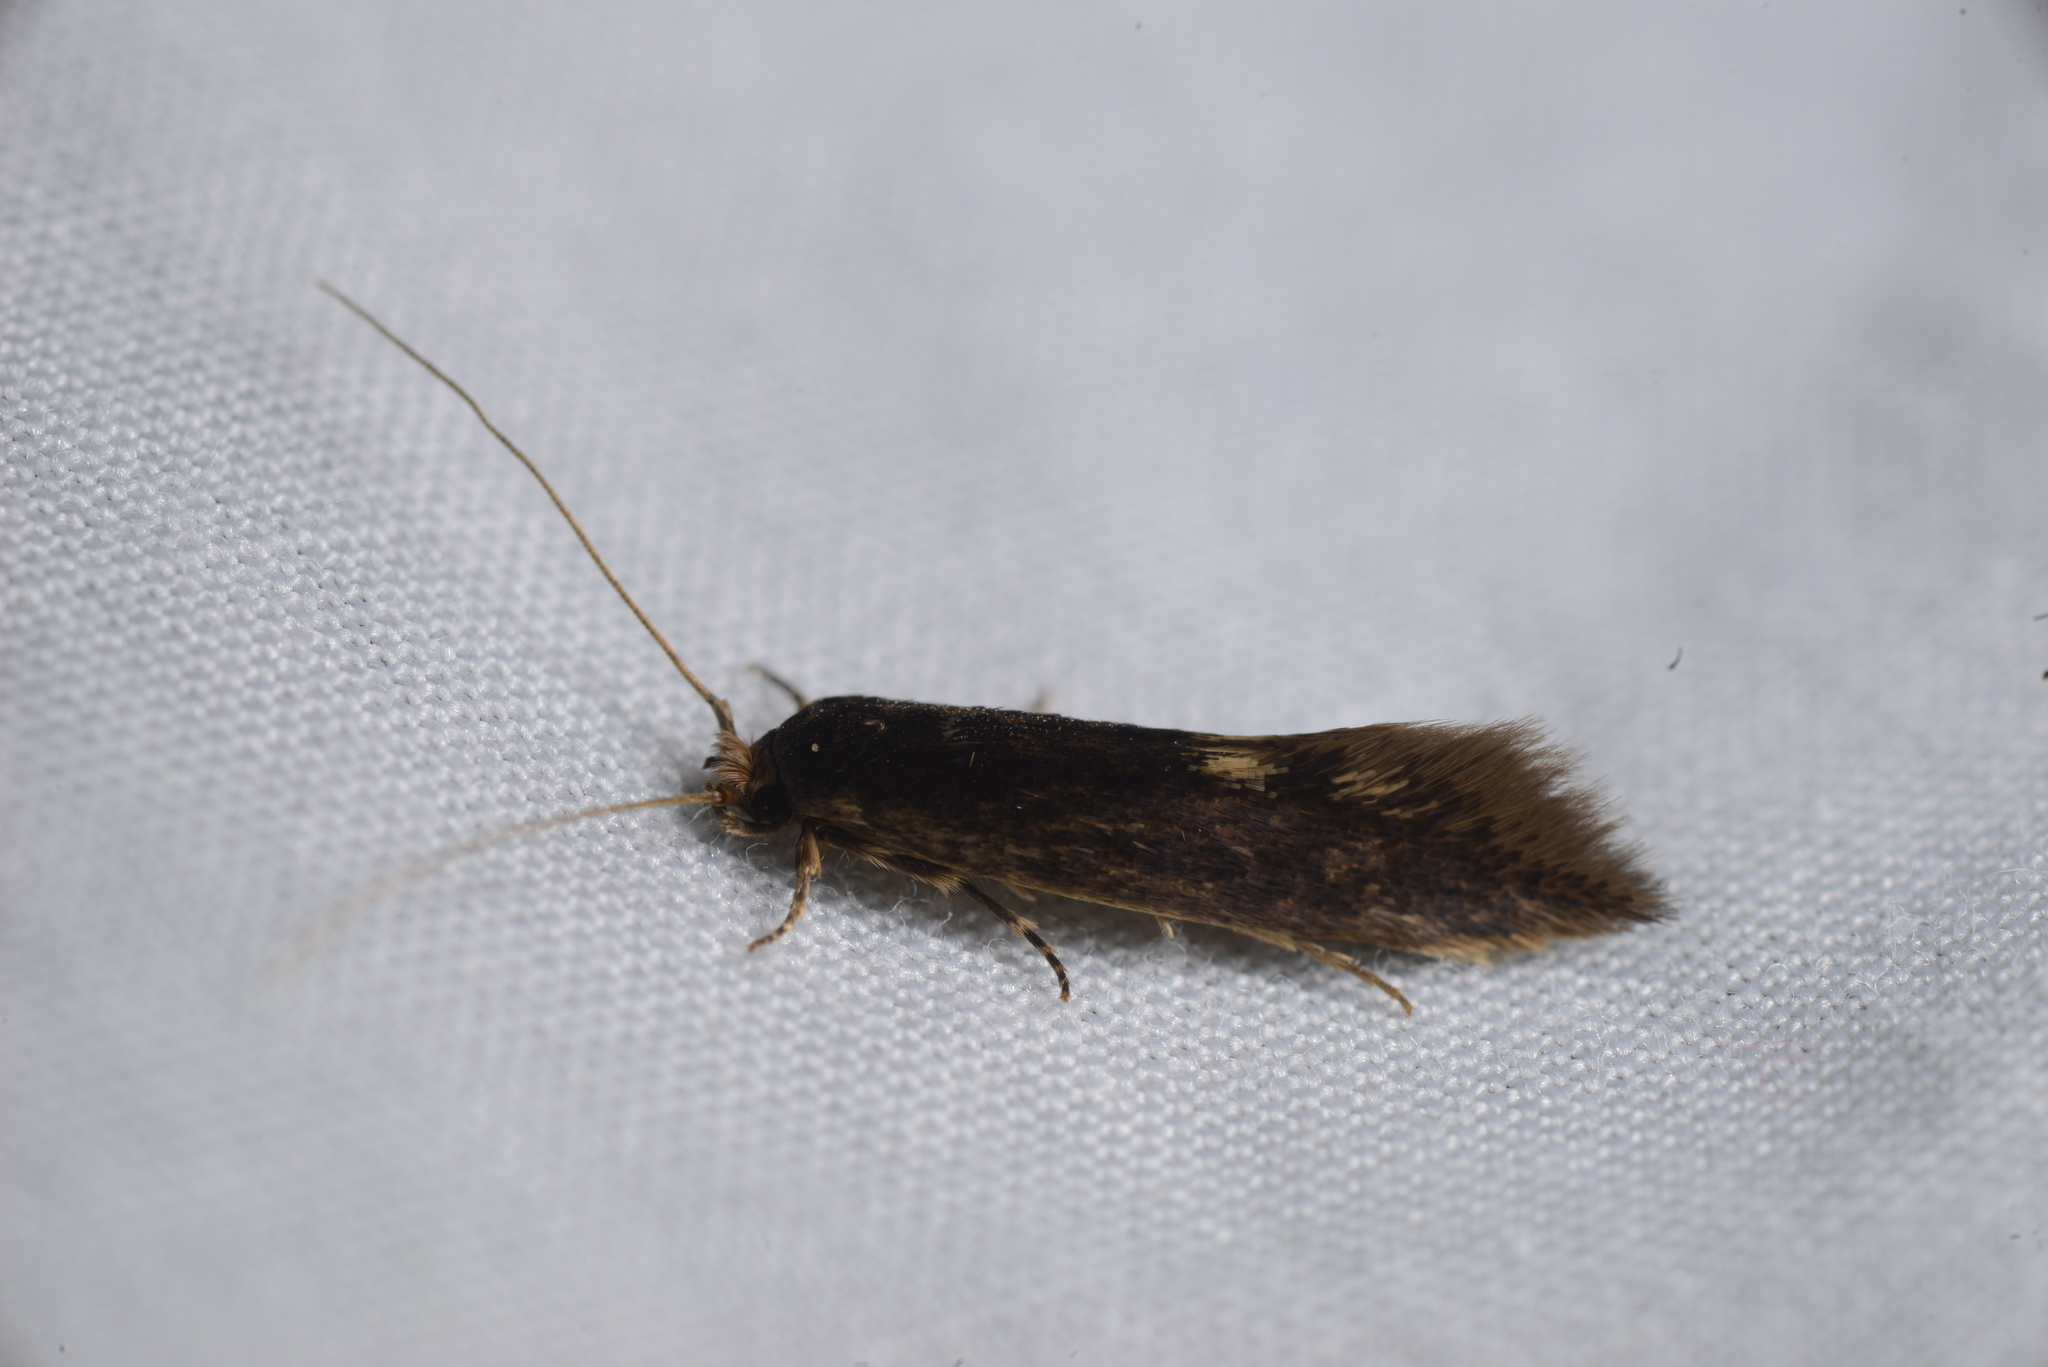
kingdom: Animalia
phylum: Arthropoda
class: Insecta
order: Lepidoptera
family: Tineidae
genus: Opogona
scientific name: Opogona omoscopa
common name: Moth
